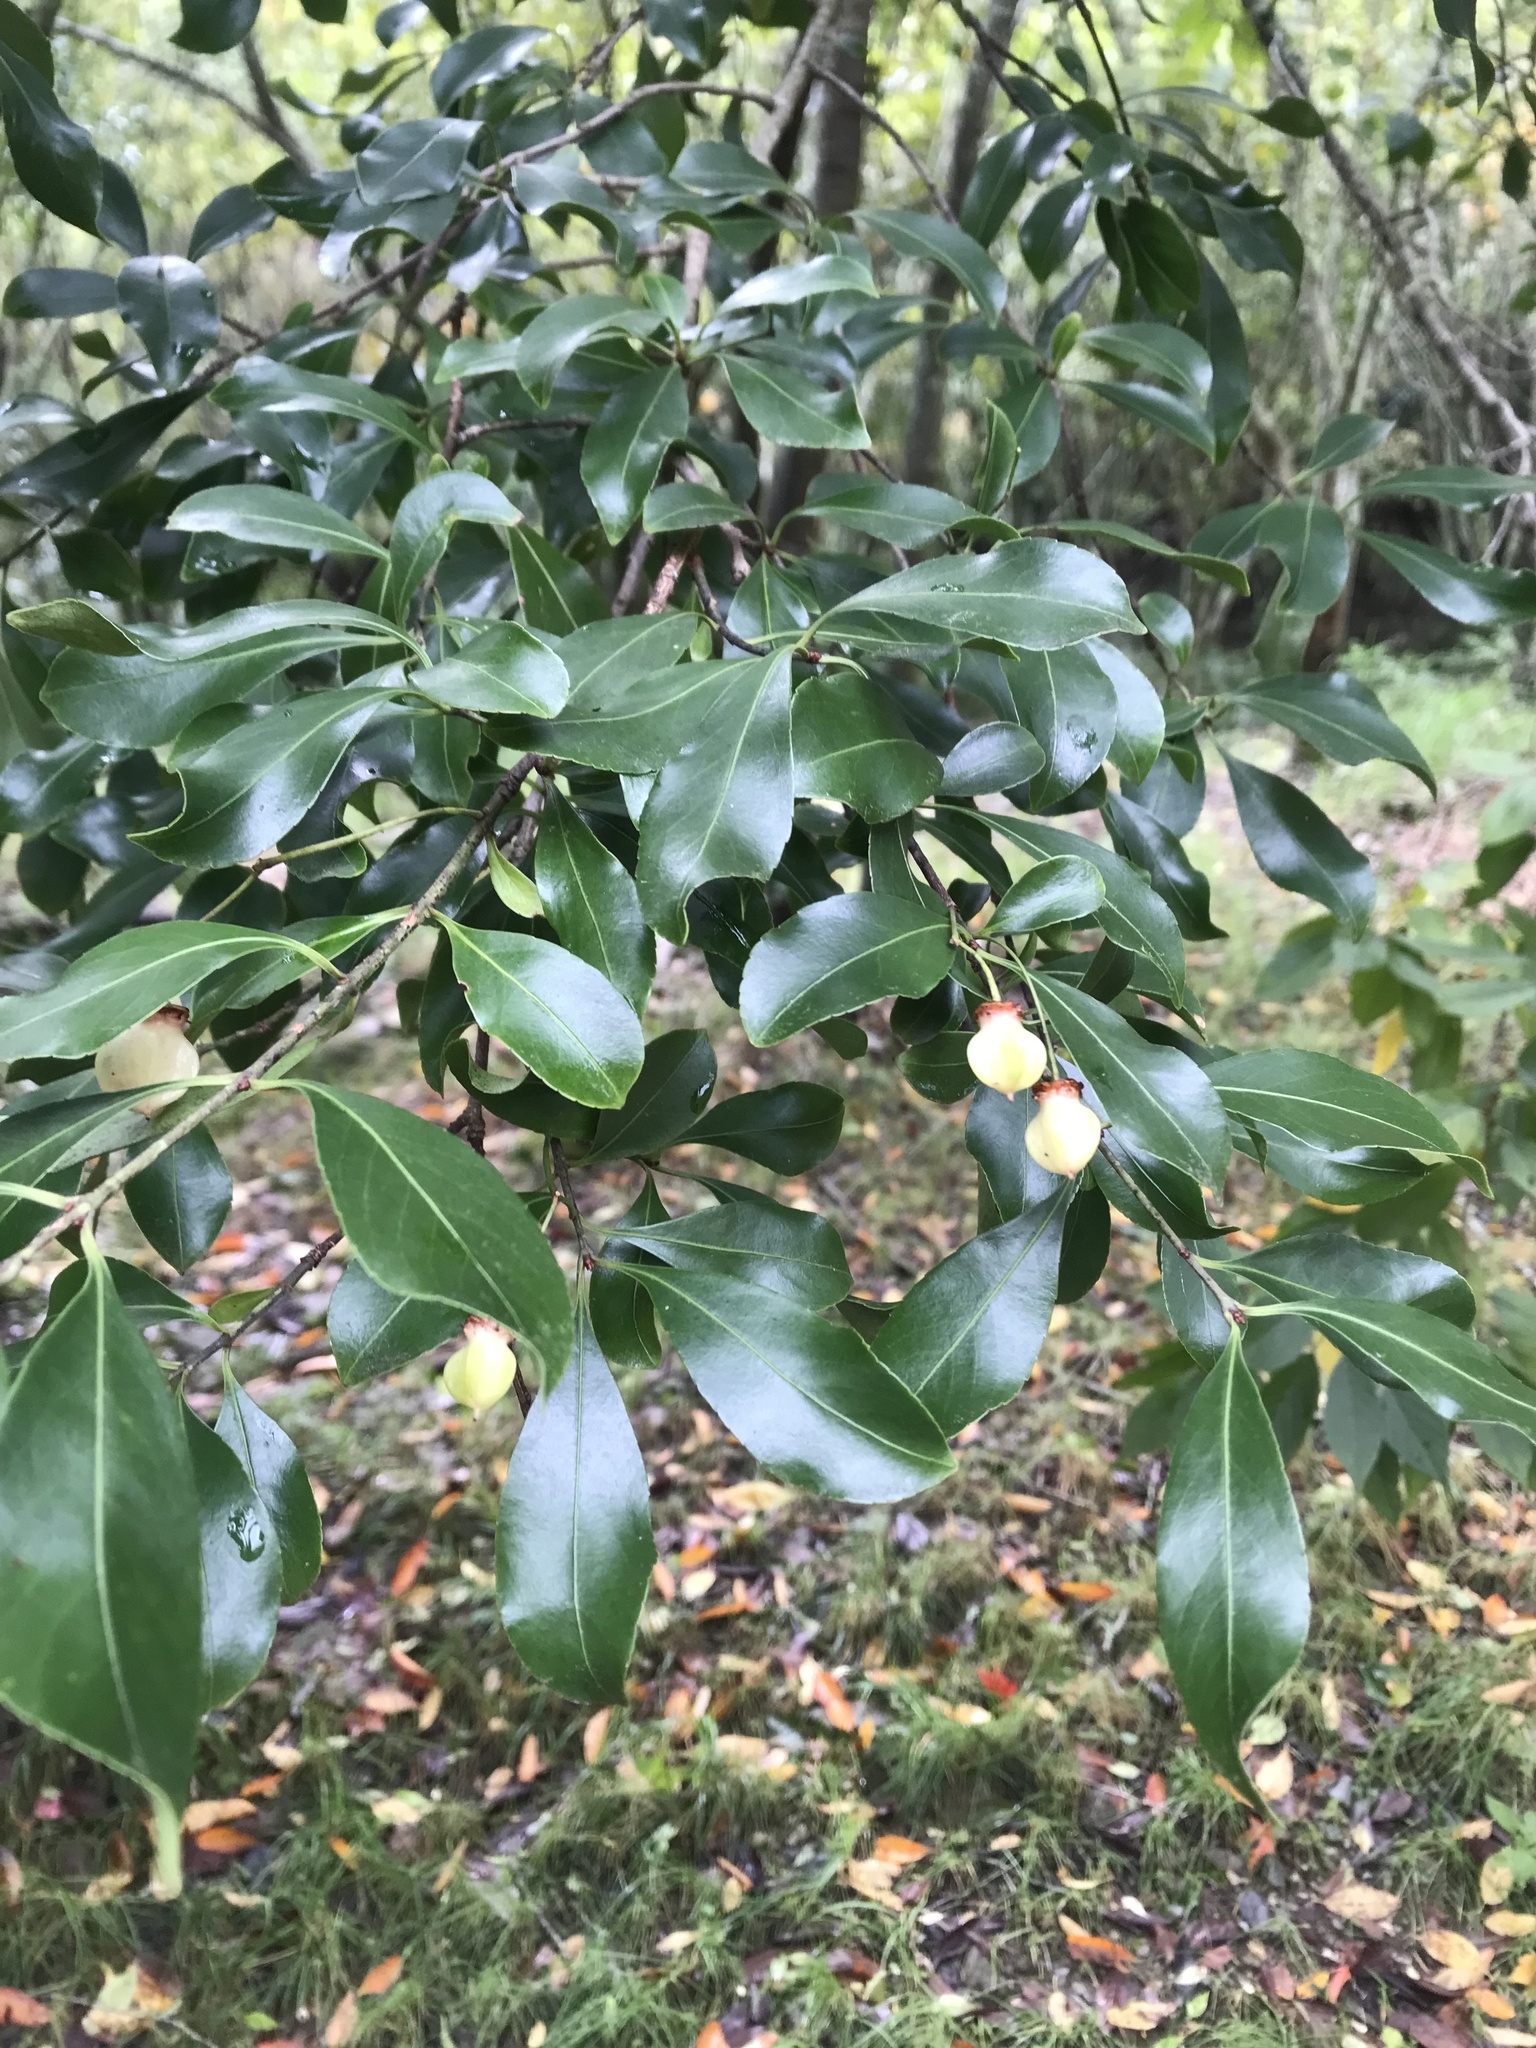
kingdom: Plantae
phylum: Tracheophyta
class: Magnoliopsida
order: Celastrales
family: Celastraceae
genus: Euonymus
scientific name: Euonymus carnosus
